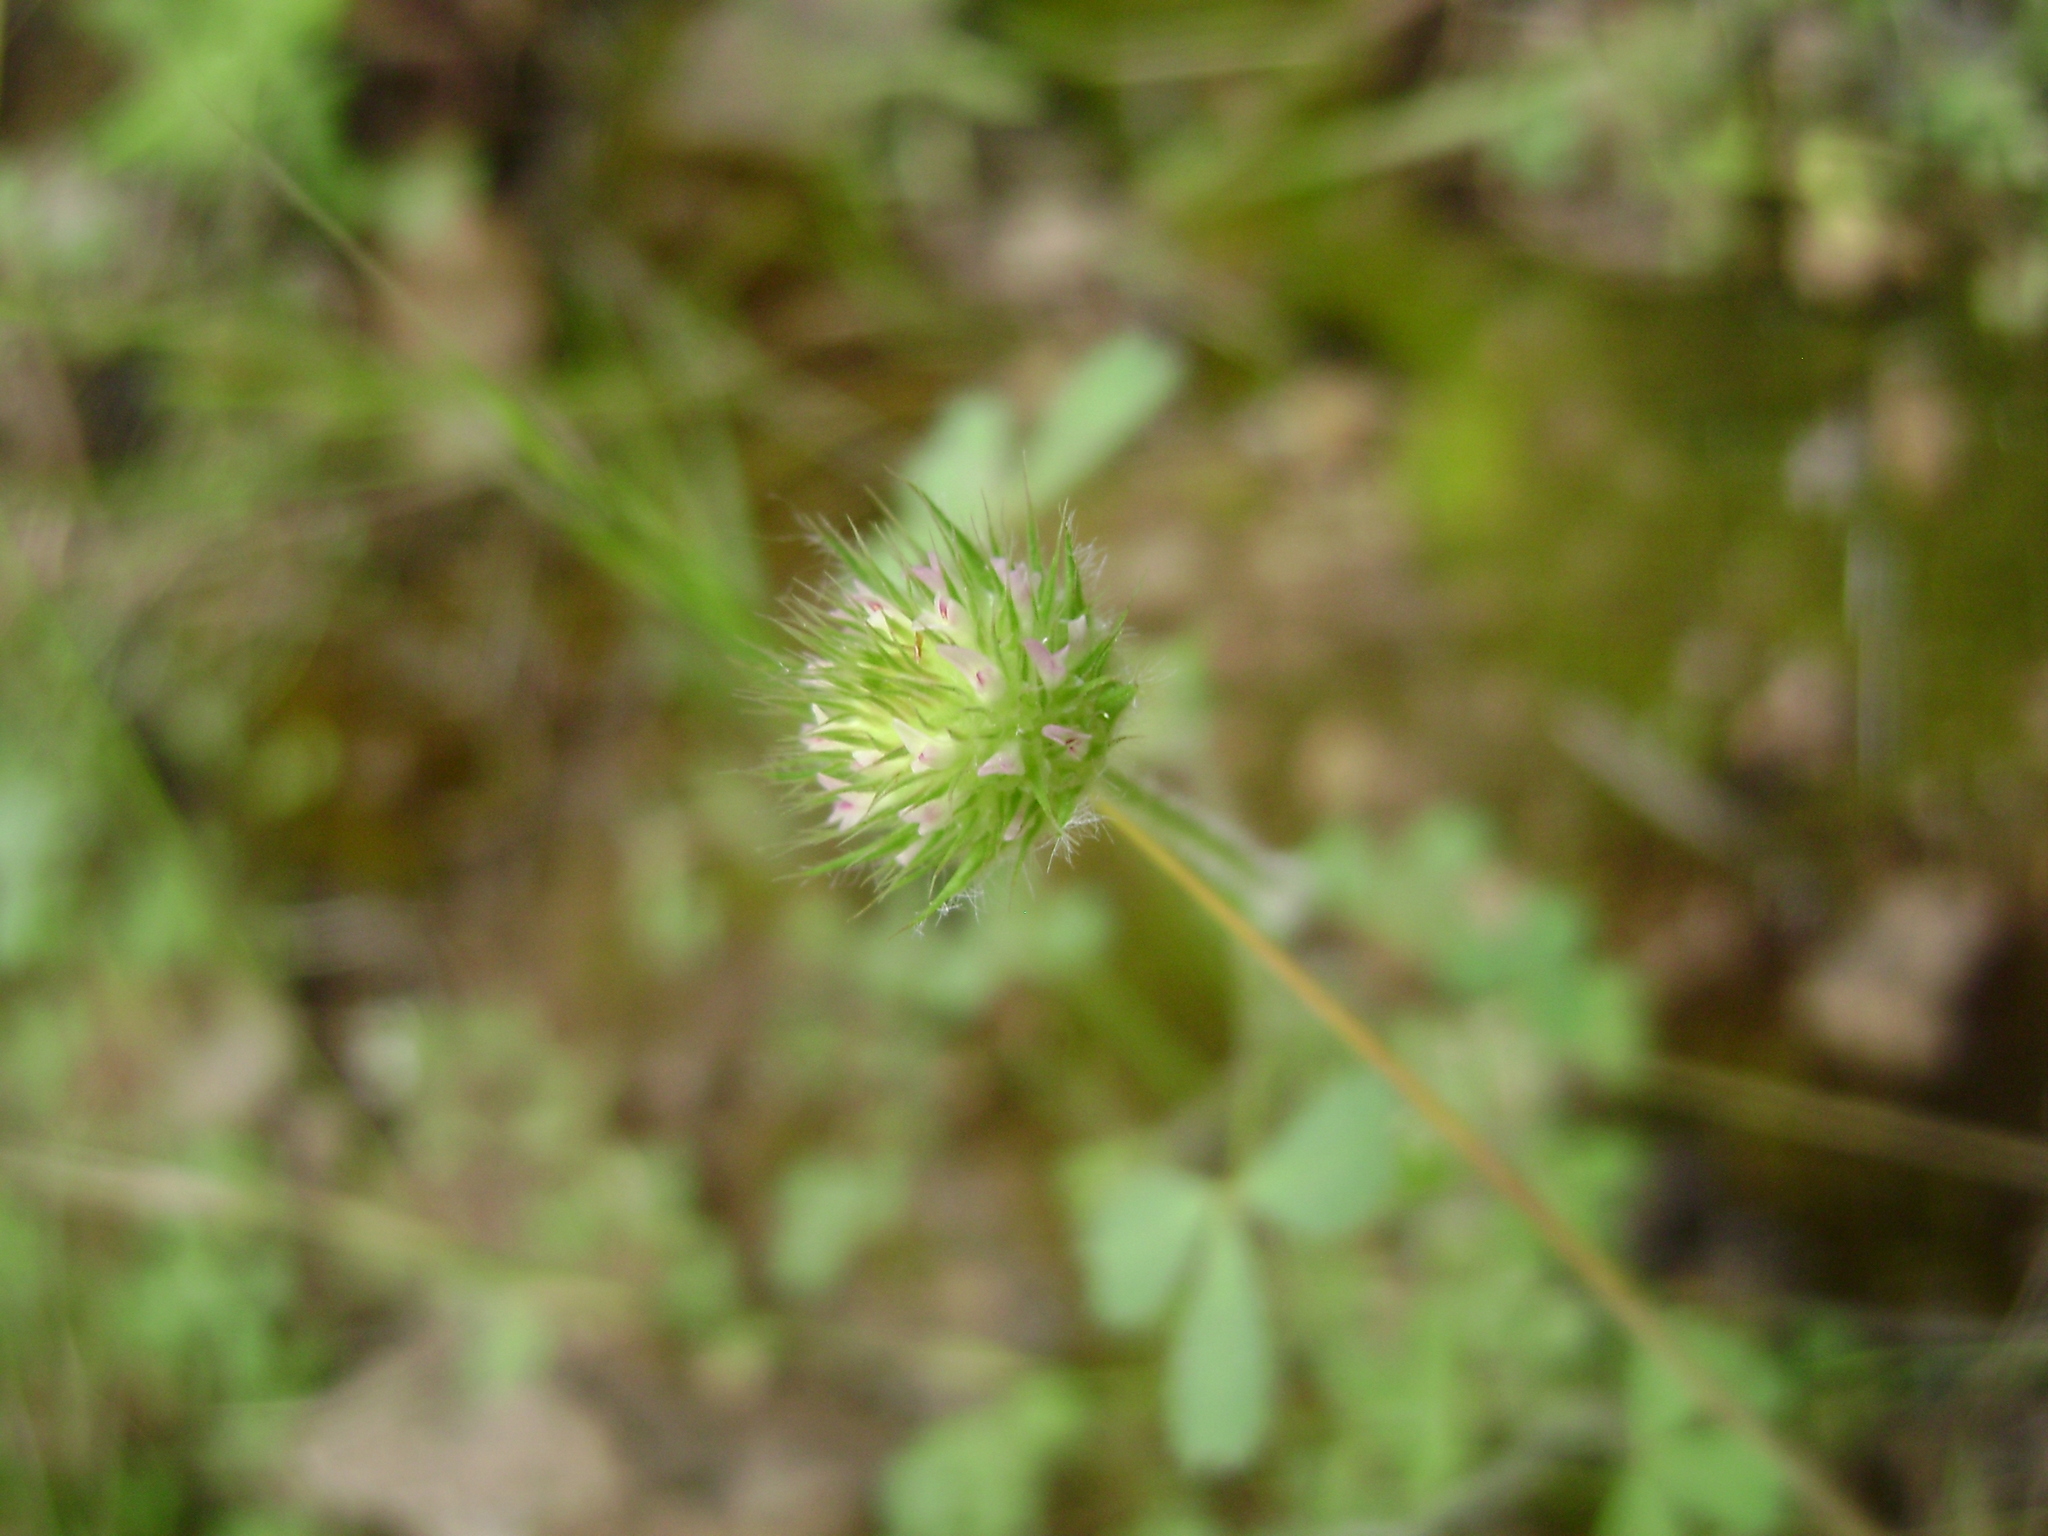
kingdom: Plantae
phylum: Tracheophyta
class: Magnoliopsida
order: Fabales
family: Fabaceae
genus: Trifolium
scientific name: Trifolium microcephalum
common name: Maiden clover
